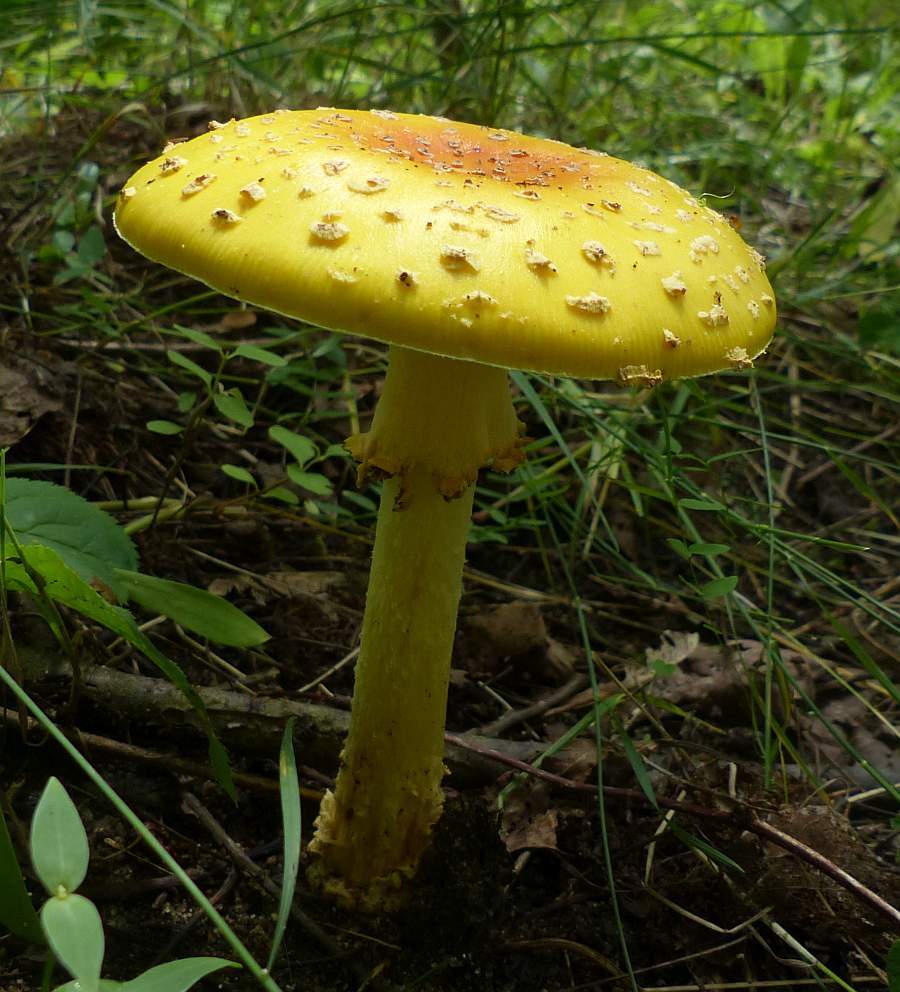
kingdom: Fungi
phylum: Basidiomycota
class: Agaricomycetes
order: Agaricales
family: Amanitaceae
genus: Amanita
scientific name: Amanita muscaria
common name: Fly agaric
